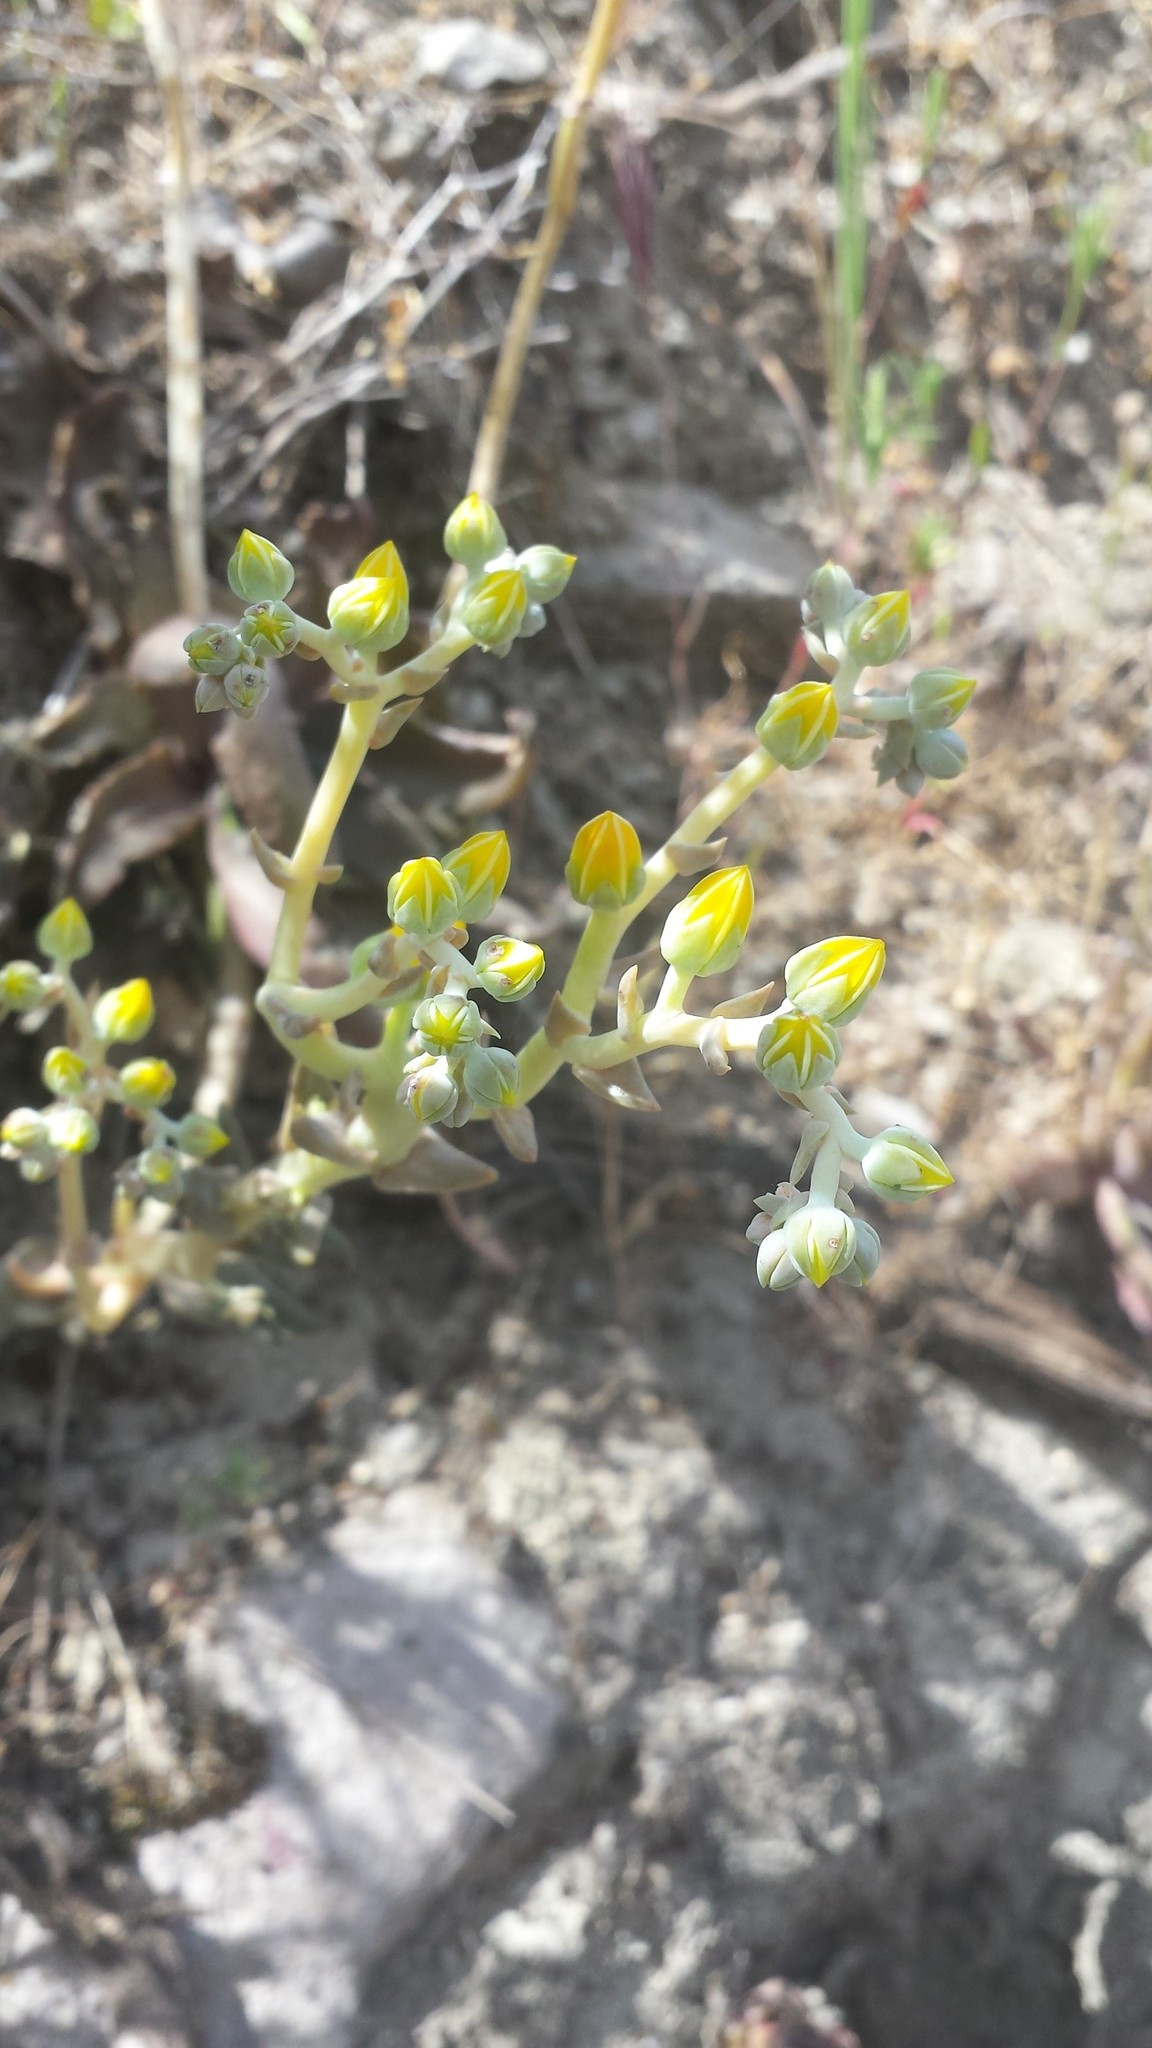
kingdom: Plantae
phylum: Tracheophyta
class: Magnoliopsida
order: Saxifragales
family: Crassulaceae
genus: Dudleya
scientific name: Dudleya cymosa
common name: Canyon dudleya
